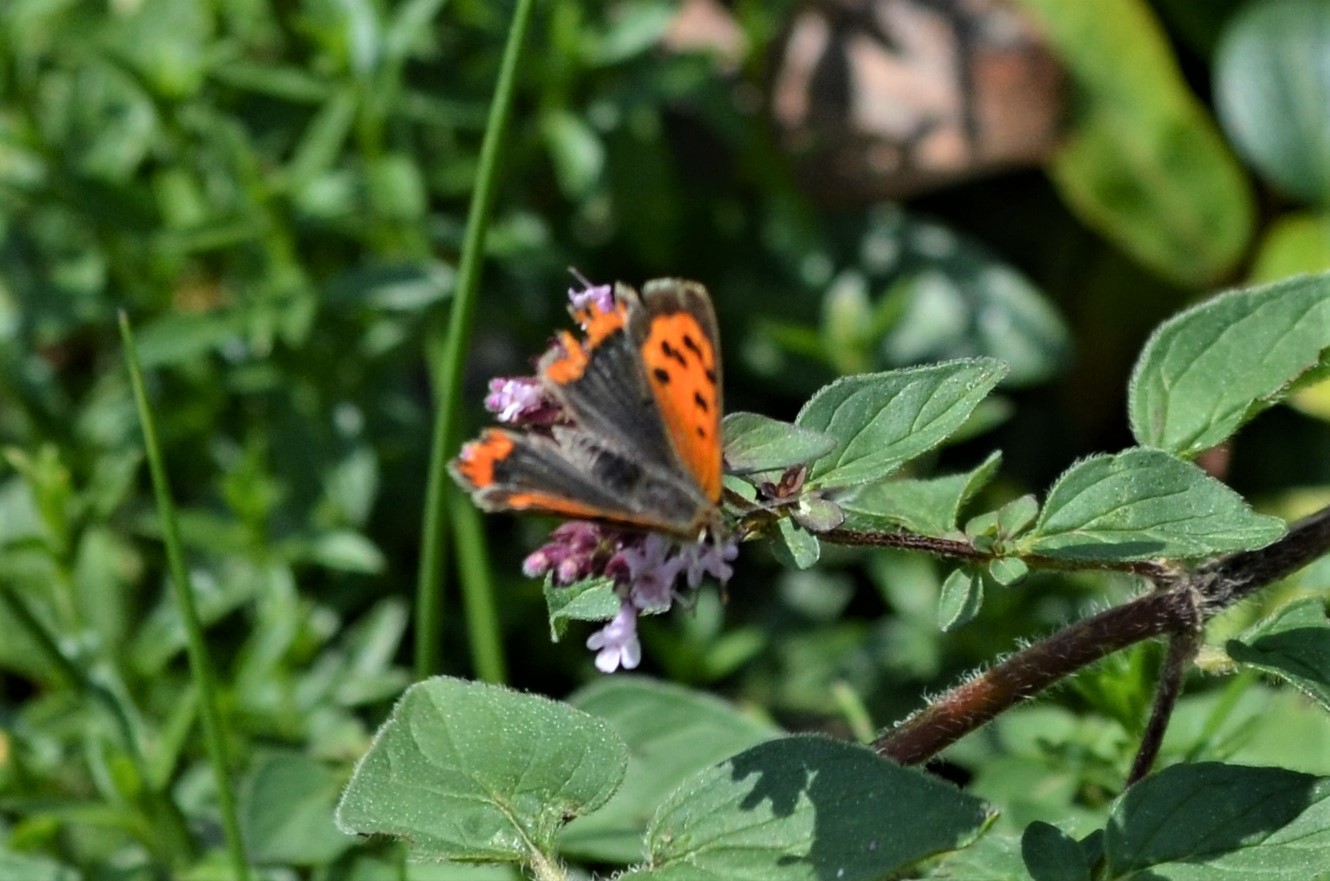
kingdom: Animalia
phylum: Arthropoda
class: Insecta
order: Lepidoptera
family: Lycaenidae
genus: Lycaena
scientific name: Lycaena phlaeas
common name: Small copper
